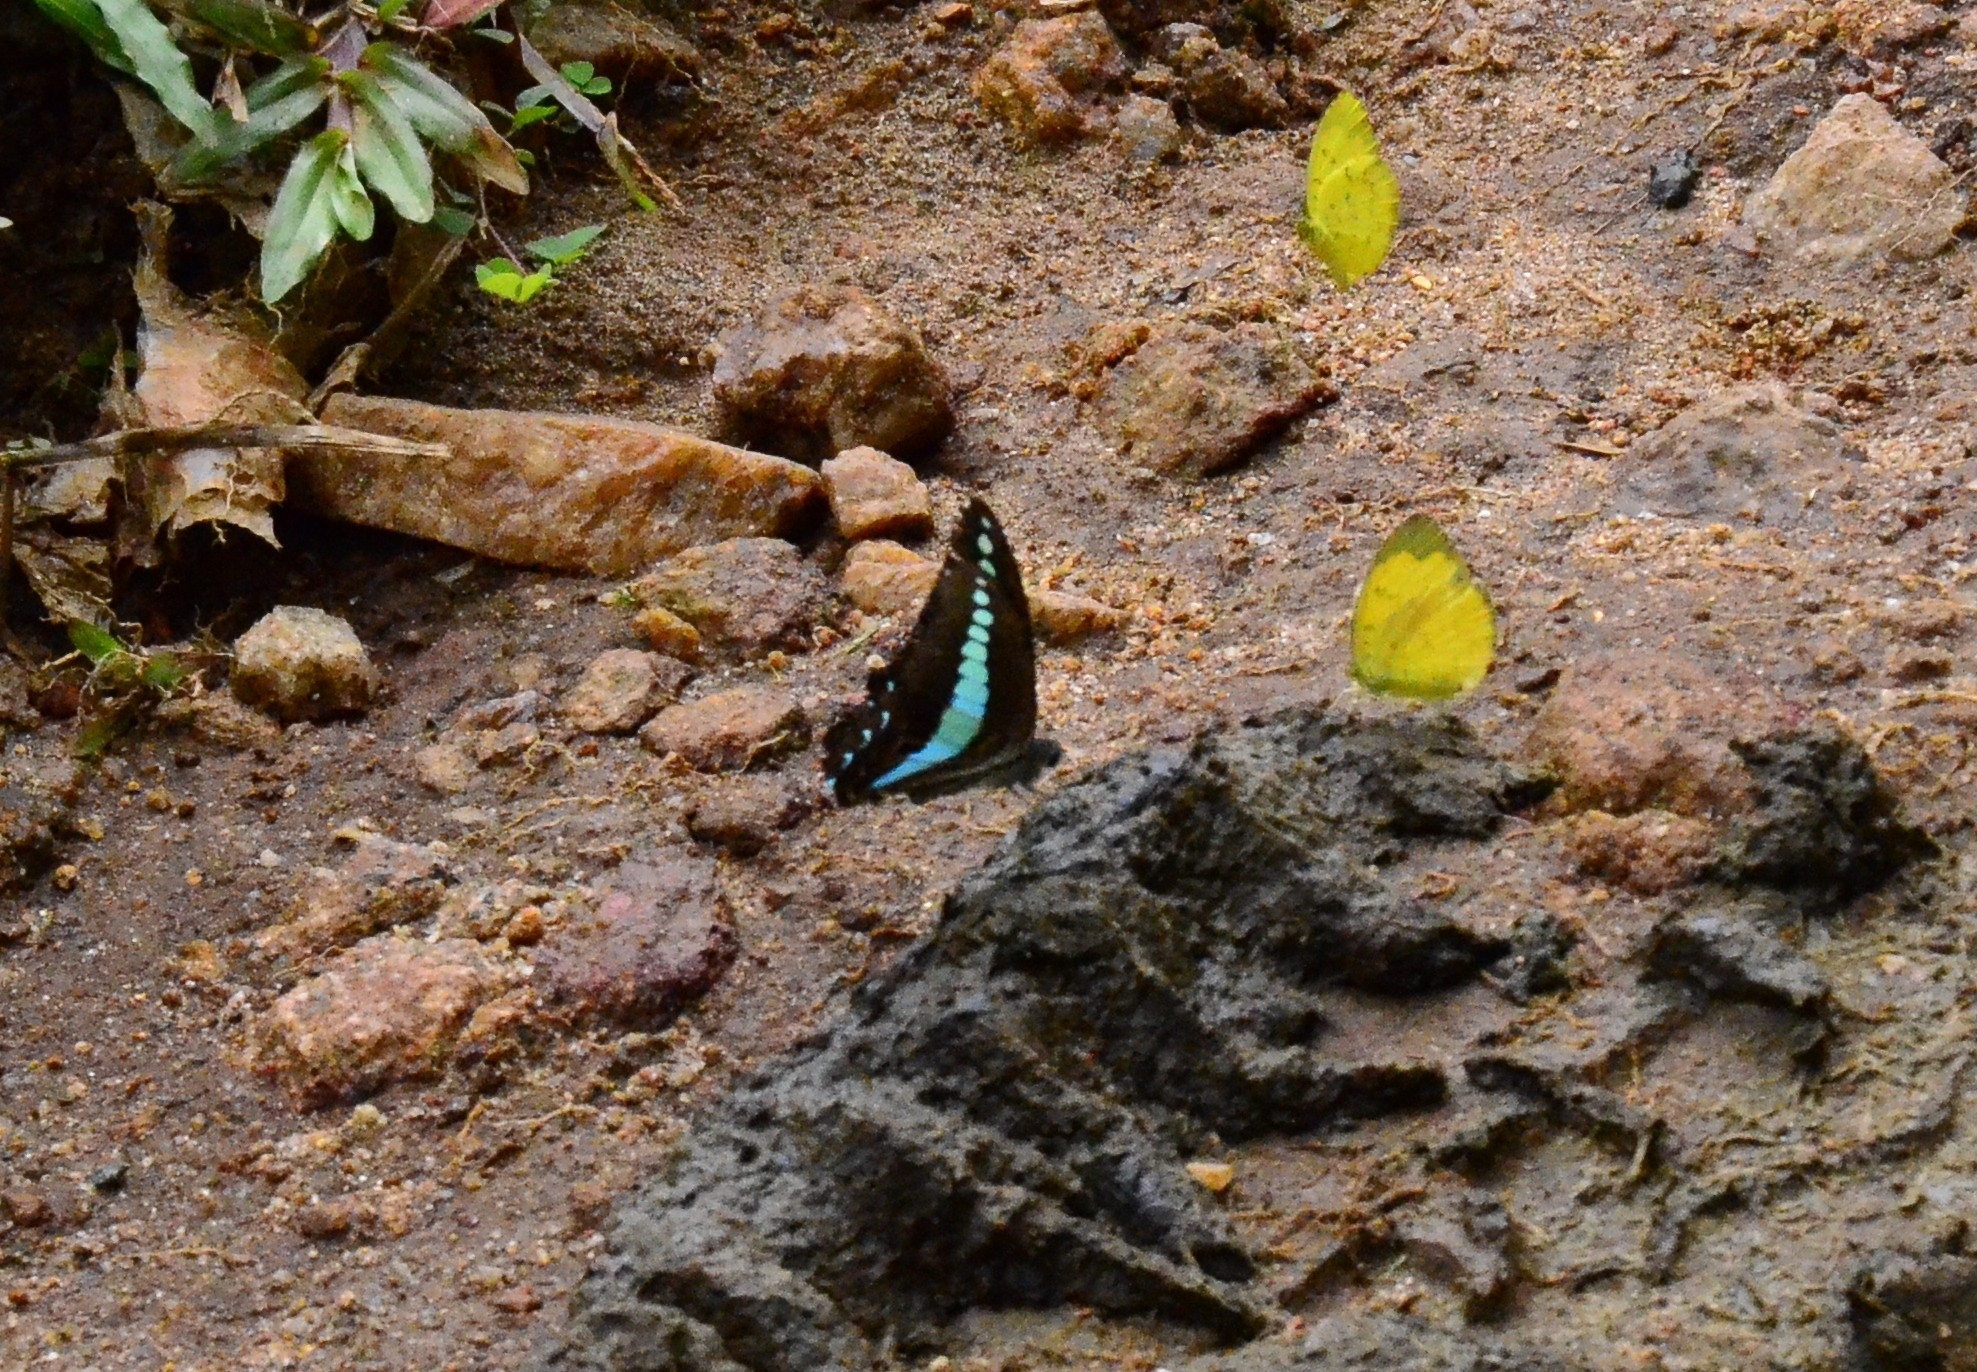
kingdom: Animalia
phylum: Arthropoda
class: Insecta
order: Lepidoptera
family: Papilionidae
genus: Graphium
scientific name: Graphium
